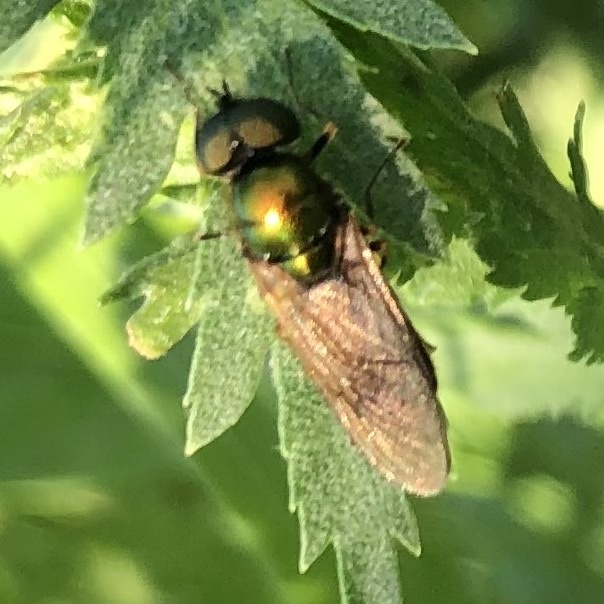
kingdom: Animalia
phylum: Arthropoda
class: Insecta
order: Diptera
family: Stratiomyidae
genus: Chloromyia
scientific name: Chloromyia formosa
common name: Soldier fly
